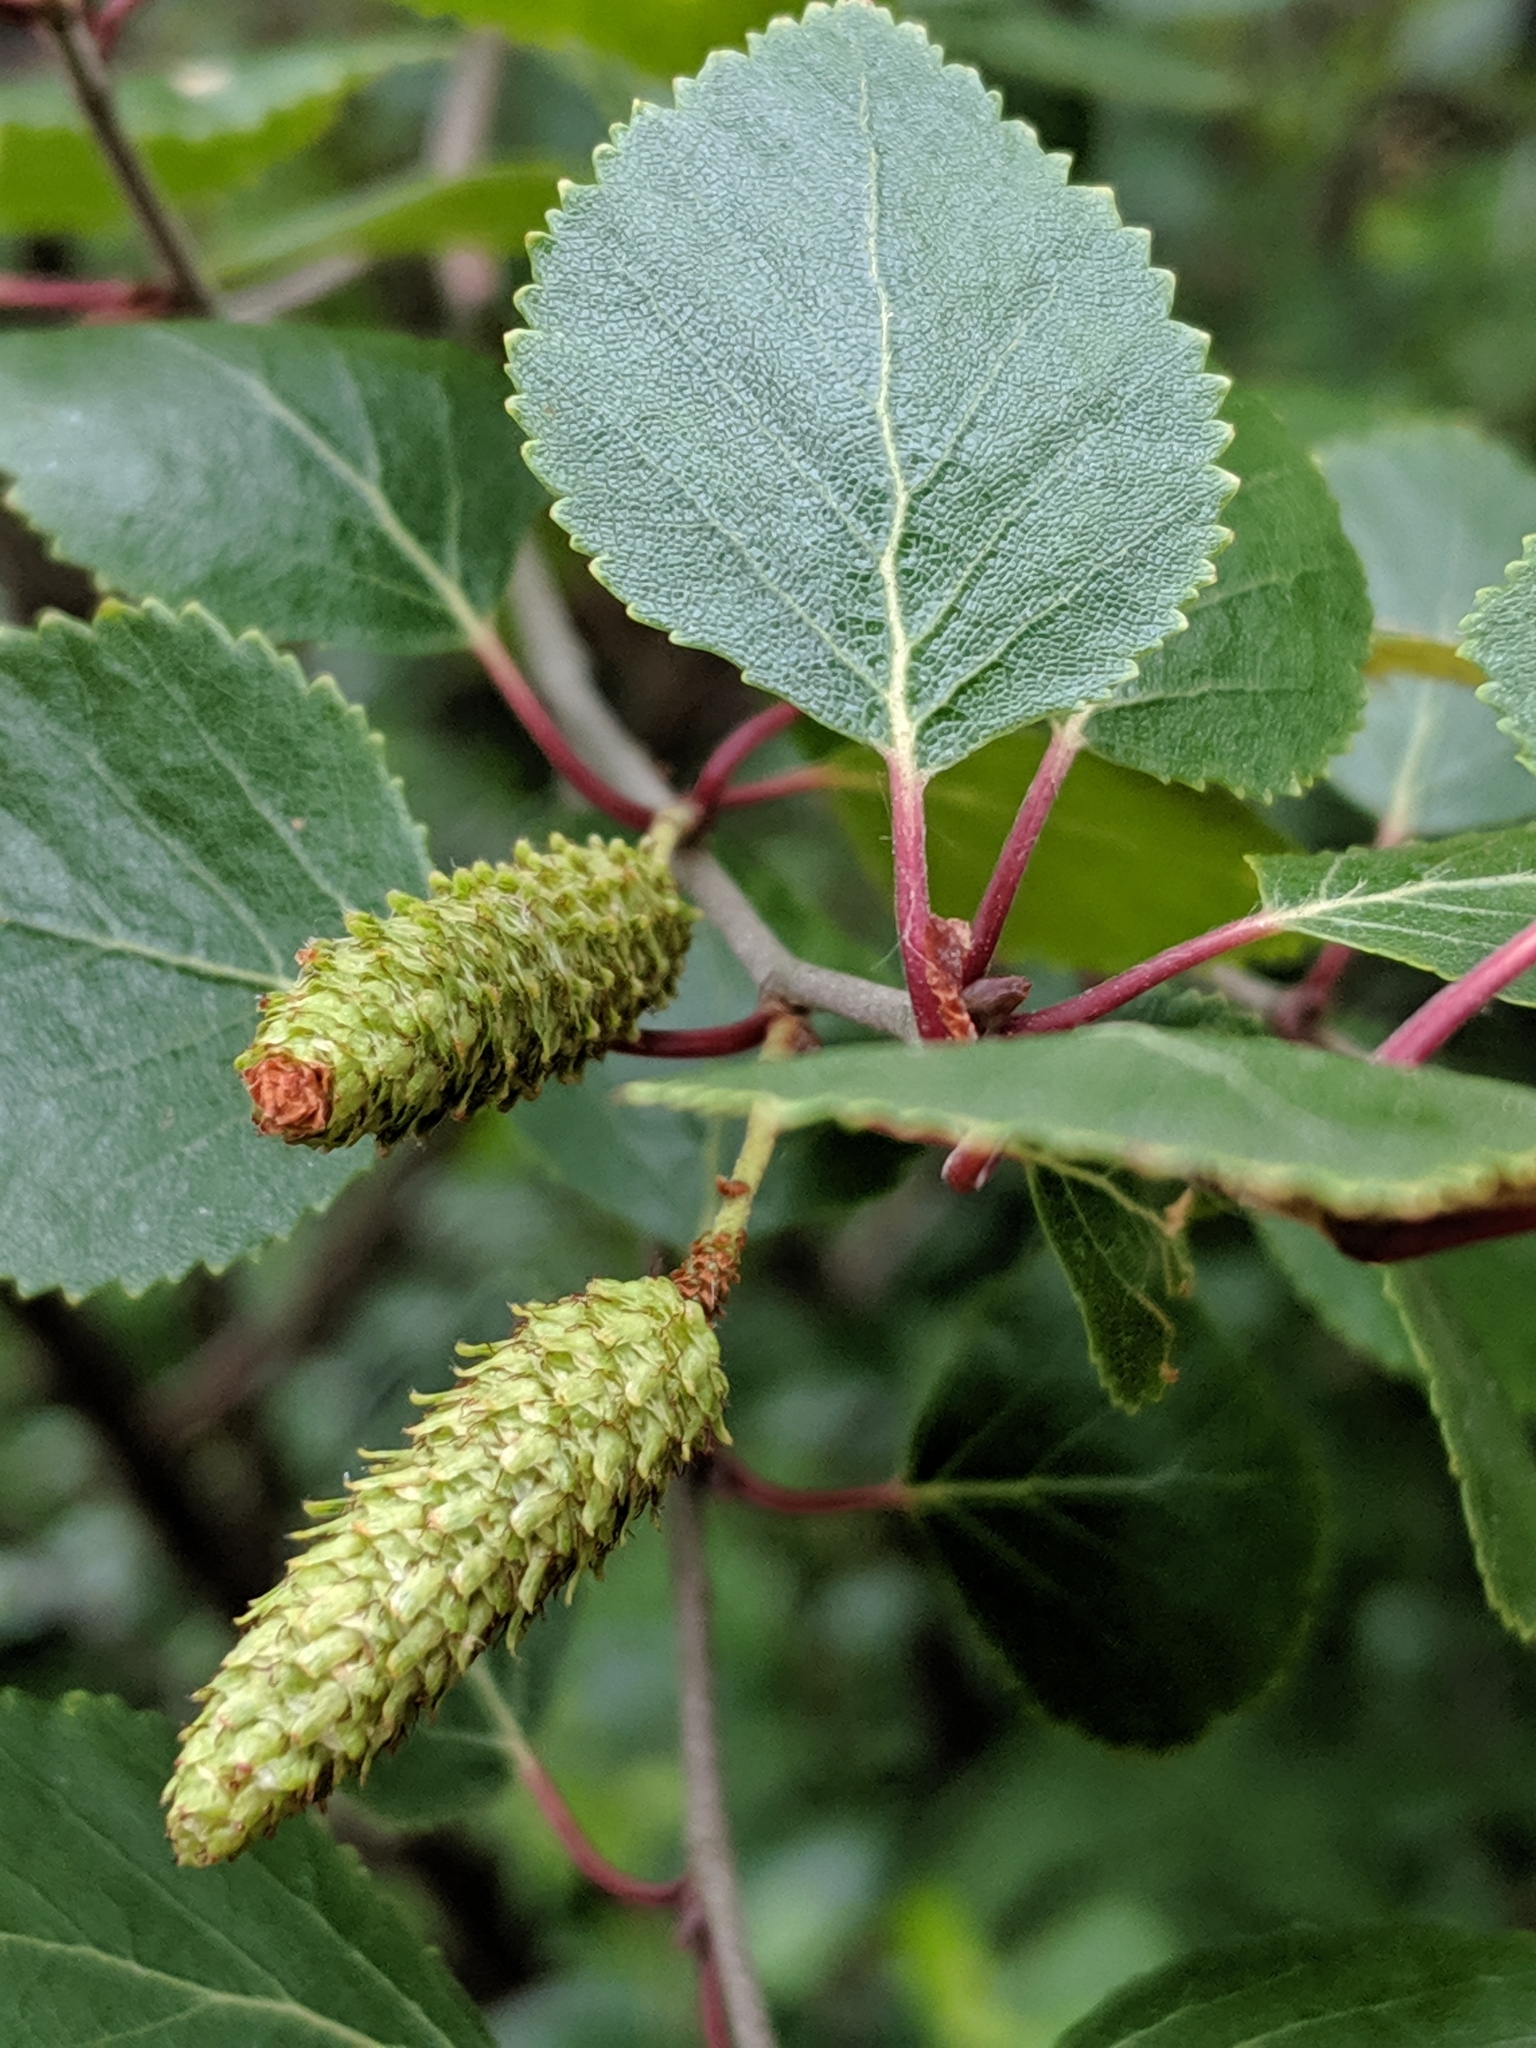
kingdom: Plantae
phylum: Tracheophyta
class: Magnoliopsida
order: Fagales
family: Betulaceae
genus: Betula
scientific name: Betula pumila
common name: Bog birch
